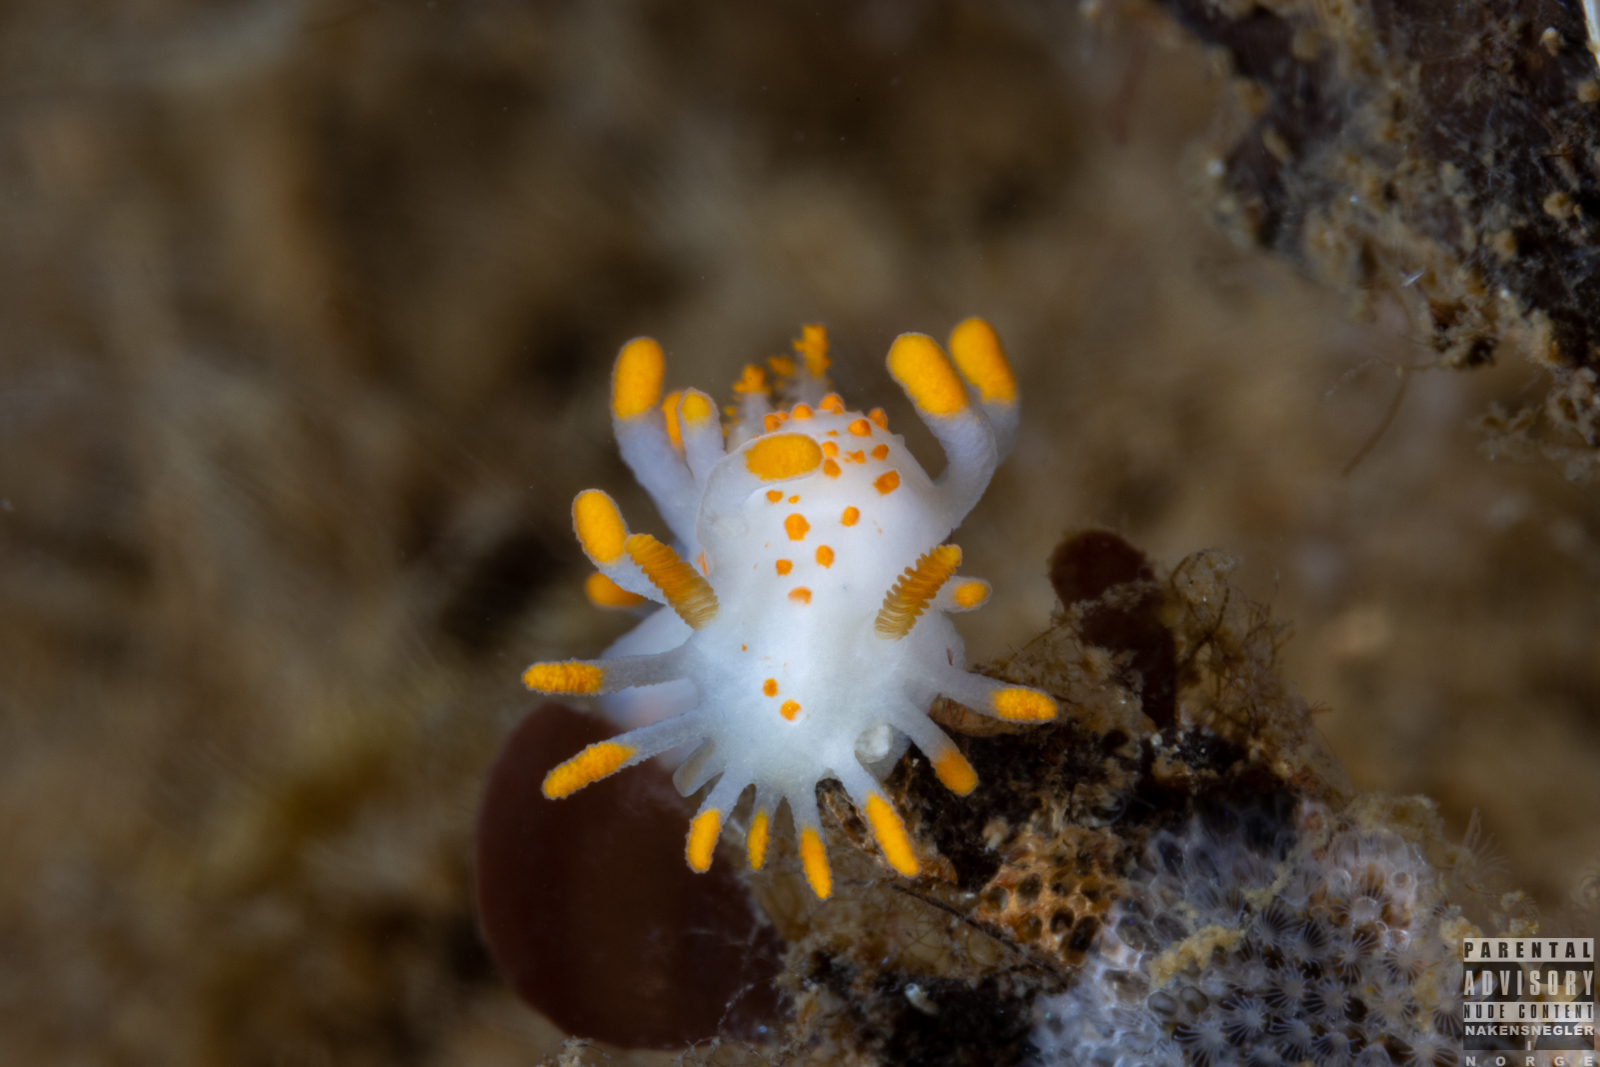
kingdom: Animalia
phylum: Mollusca
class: Gastropoda
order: Nudibranchia
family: Polyceridae
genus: Limacia
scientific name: Limacia clavigera
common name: Orange-clubbed sea slug
